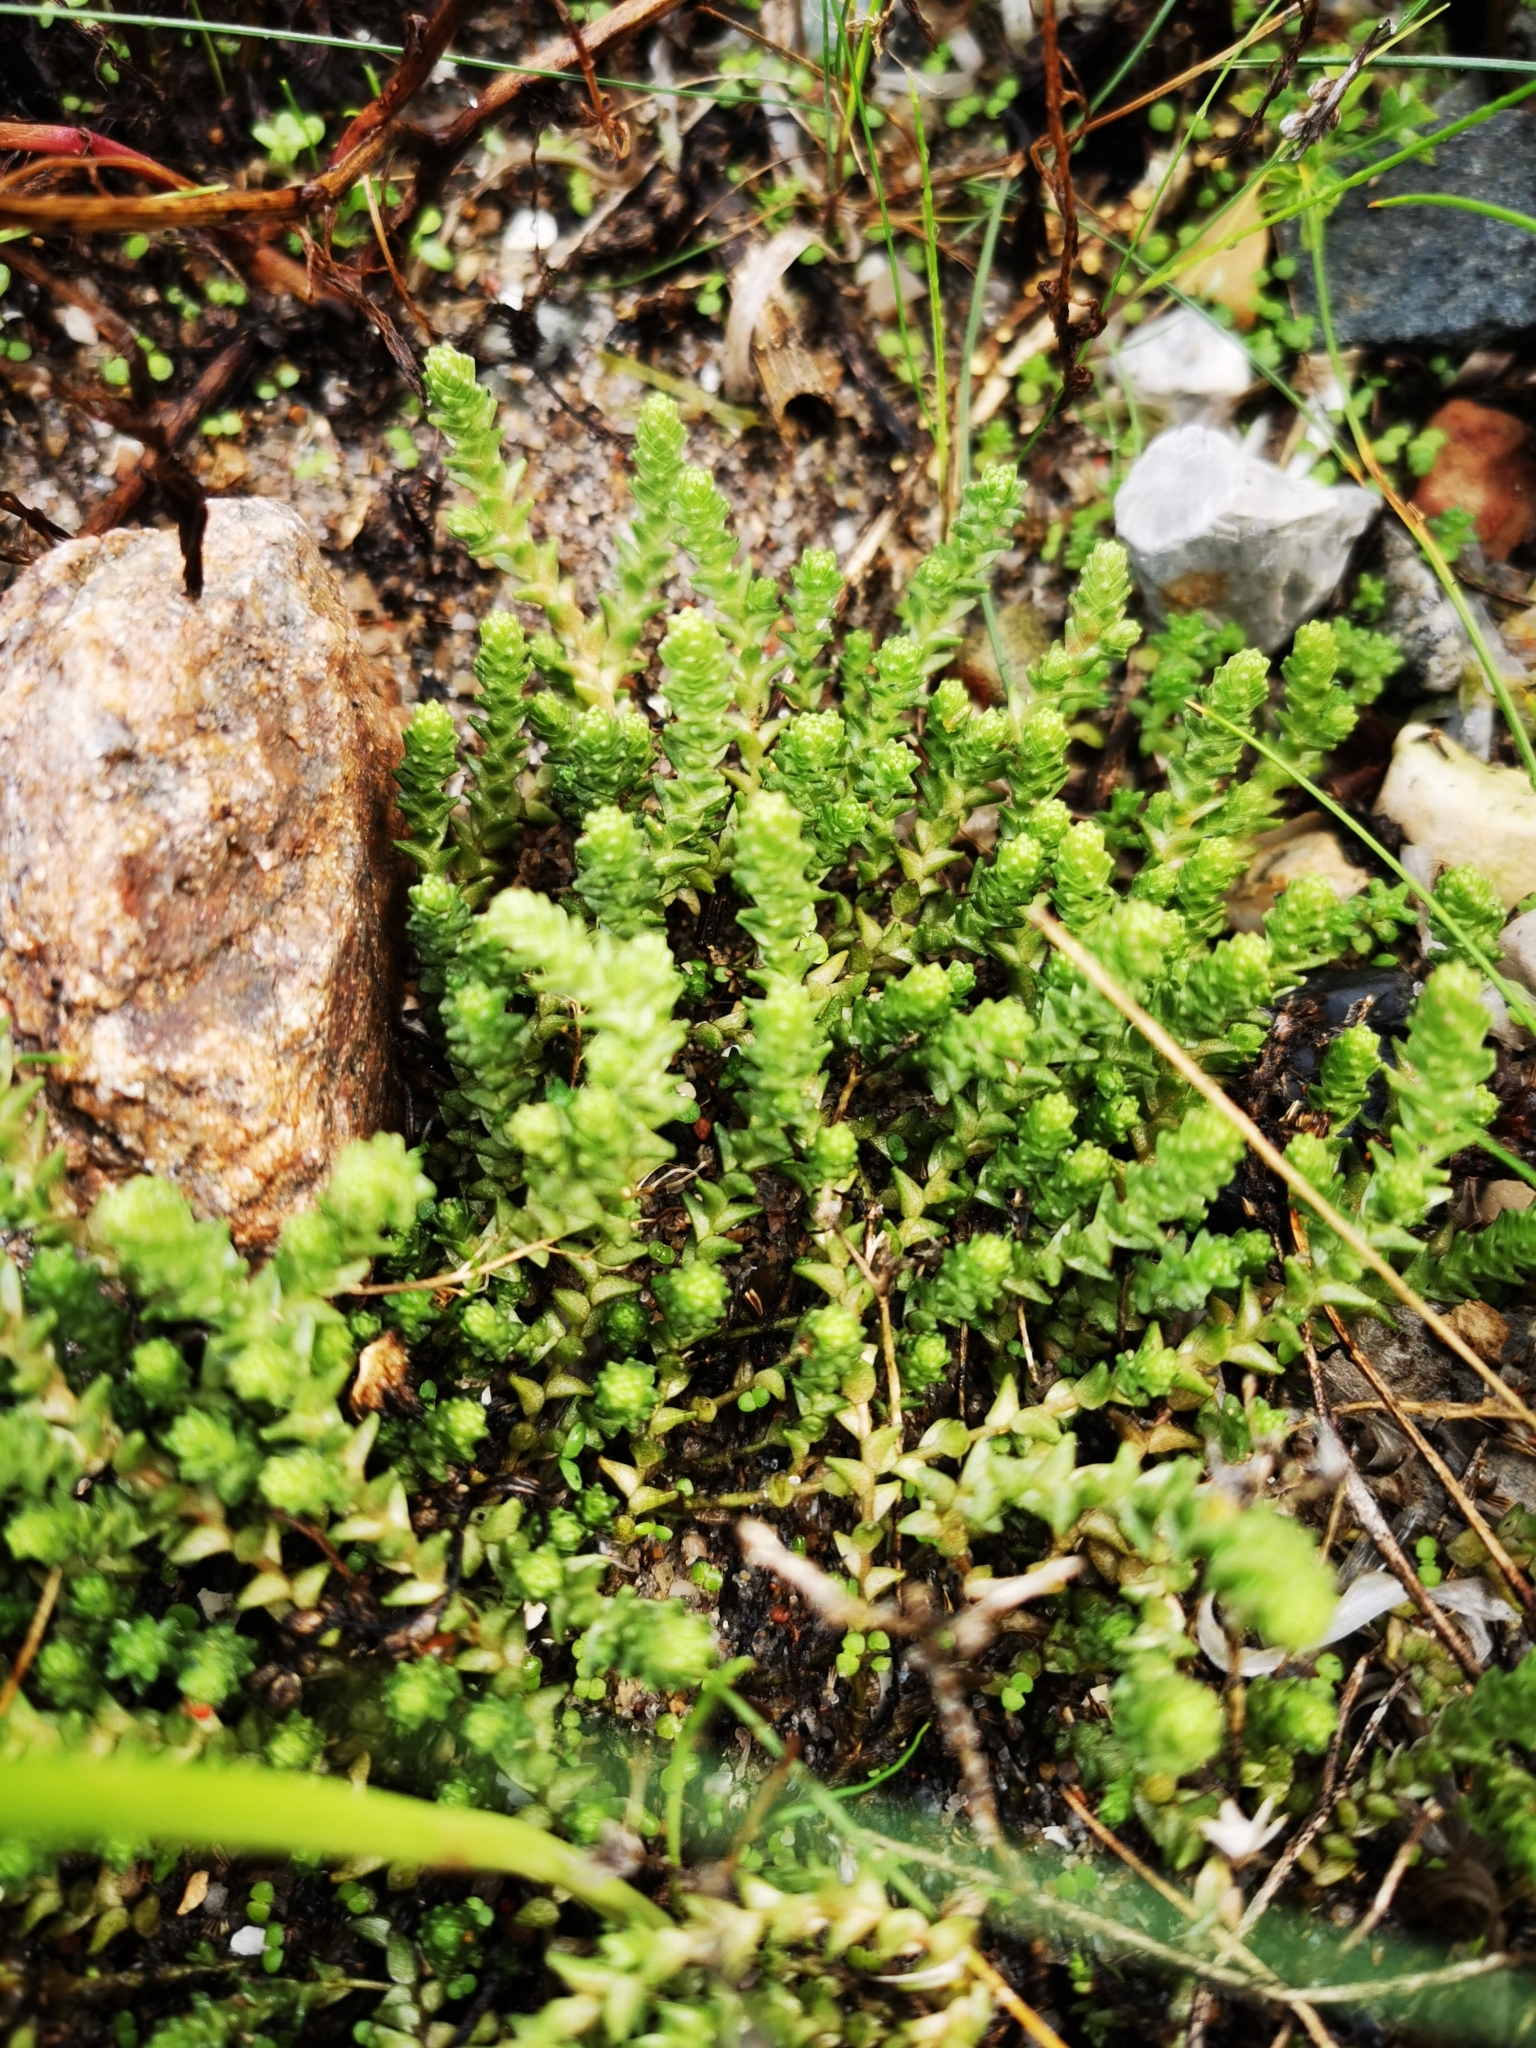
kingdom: Plantae
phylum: Tracheophyta
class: Magnoliopsida
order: Saxifragales
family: Crassulaceae
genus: Sedum
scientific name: Sedum acre
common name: Biting stonecrop
